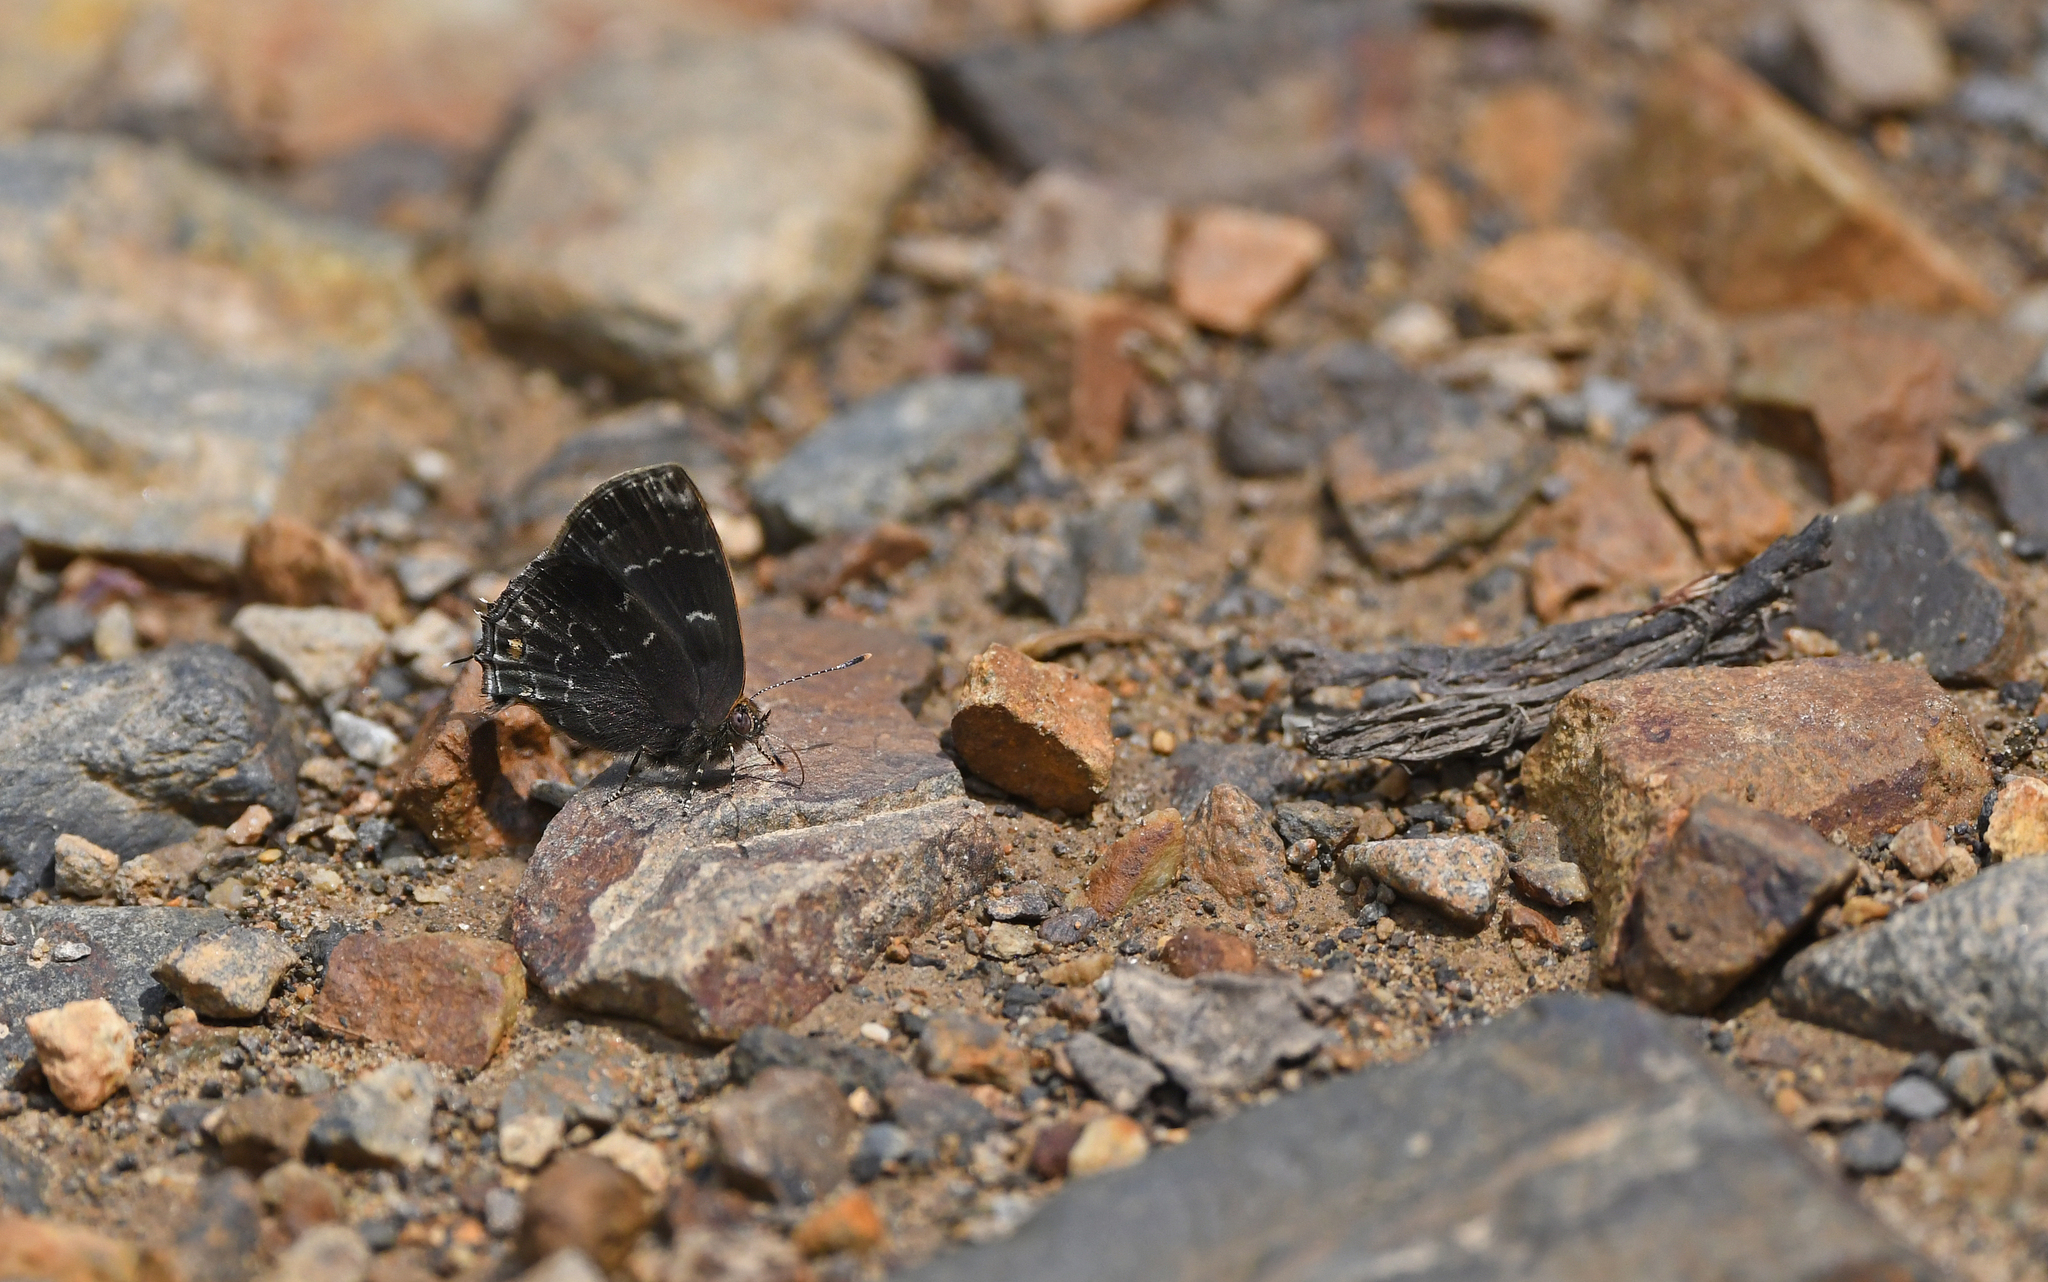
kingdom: Animalia
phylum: Arthropoda
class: Insecta
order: Lepidoptera
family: Lycaenidae
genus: Ocaria
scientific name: Ocaria ocrisia
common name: Black hairstreak
